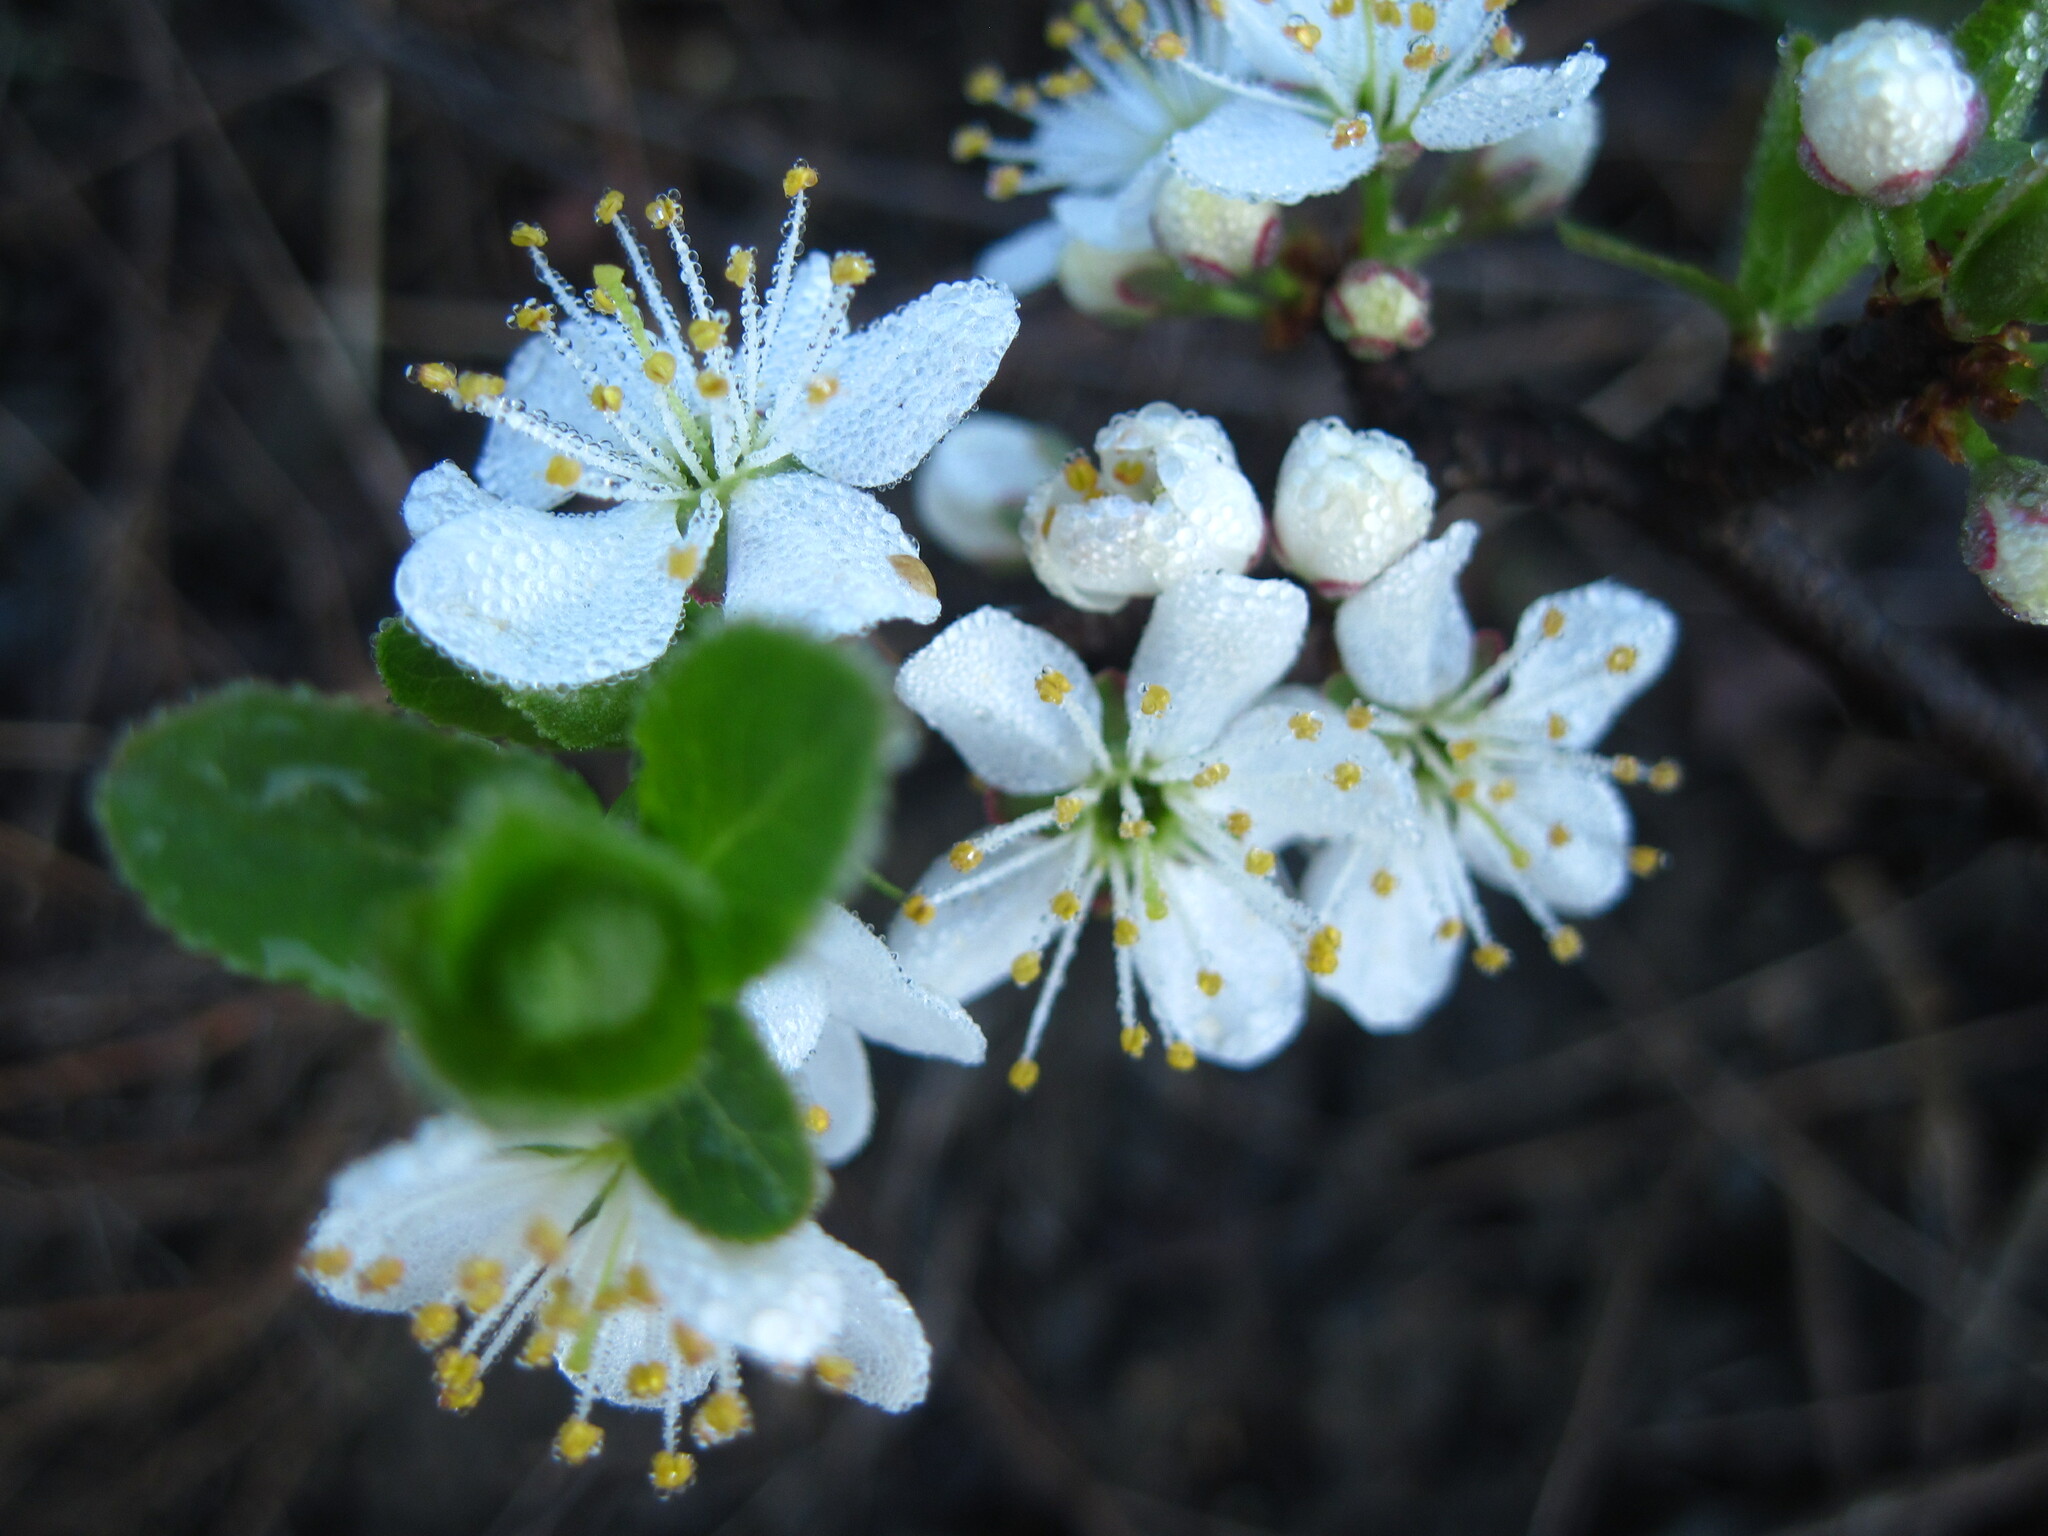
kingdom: Plantae
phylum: Tracheophyta
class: Magnoliopsida
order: Rosales
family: Rosaceae
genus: Prunus
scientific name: Prunus spinosa
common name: Blackthorn
